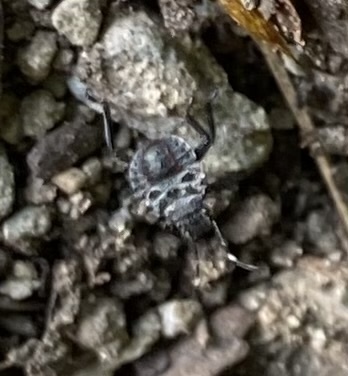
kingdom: Animalia
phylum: Arthropoda
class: Insecta
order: Hemiptera
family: Pentatomidae
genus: Halyomorpha
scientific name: Halyomorpha halys
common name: Brown marmorated stink bug
